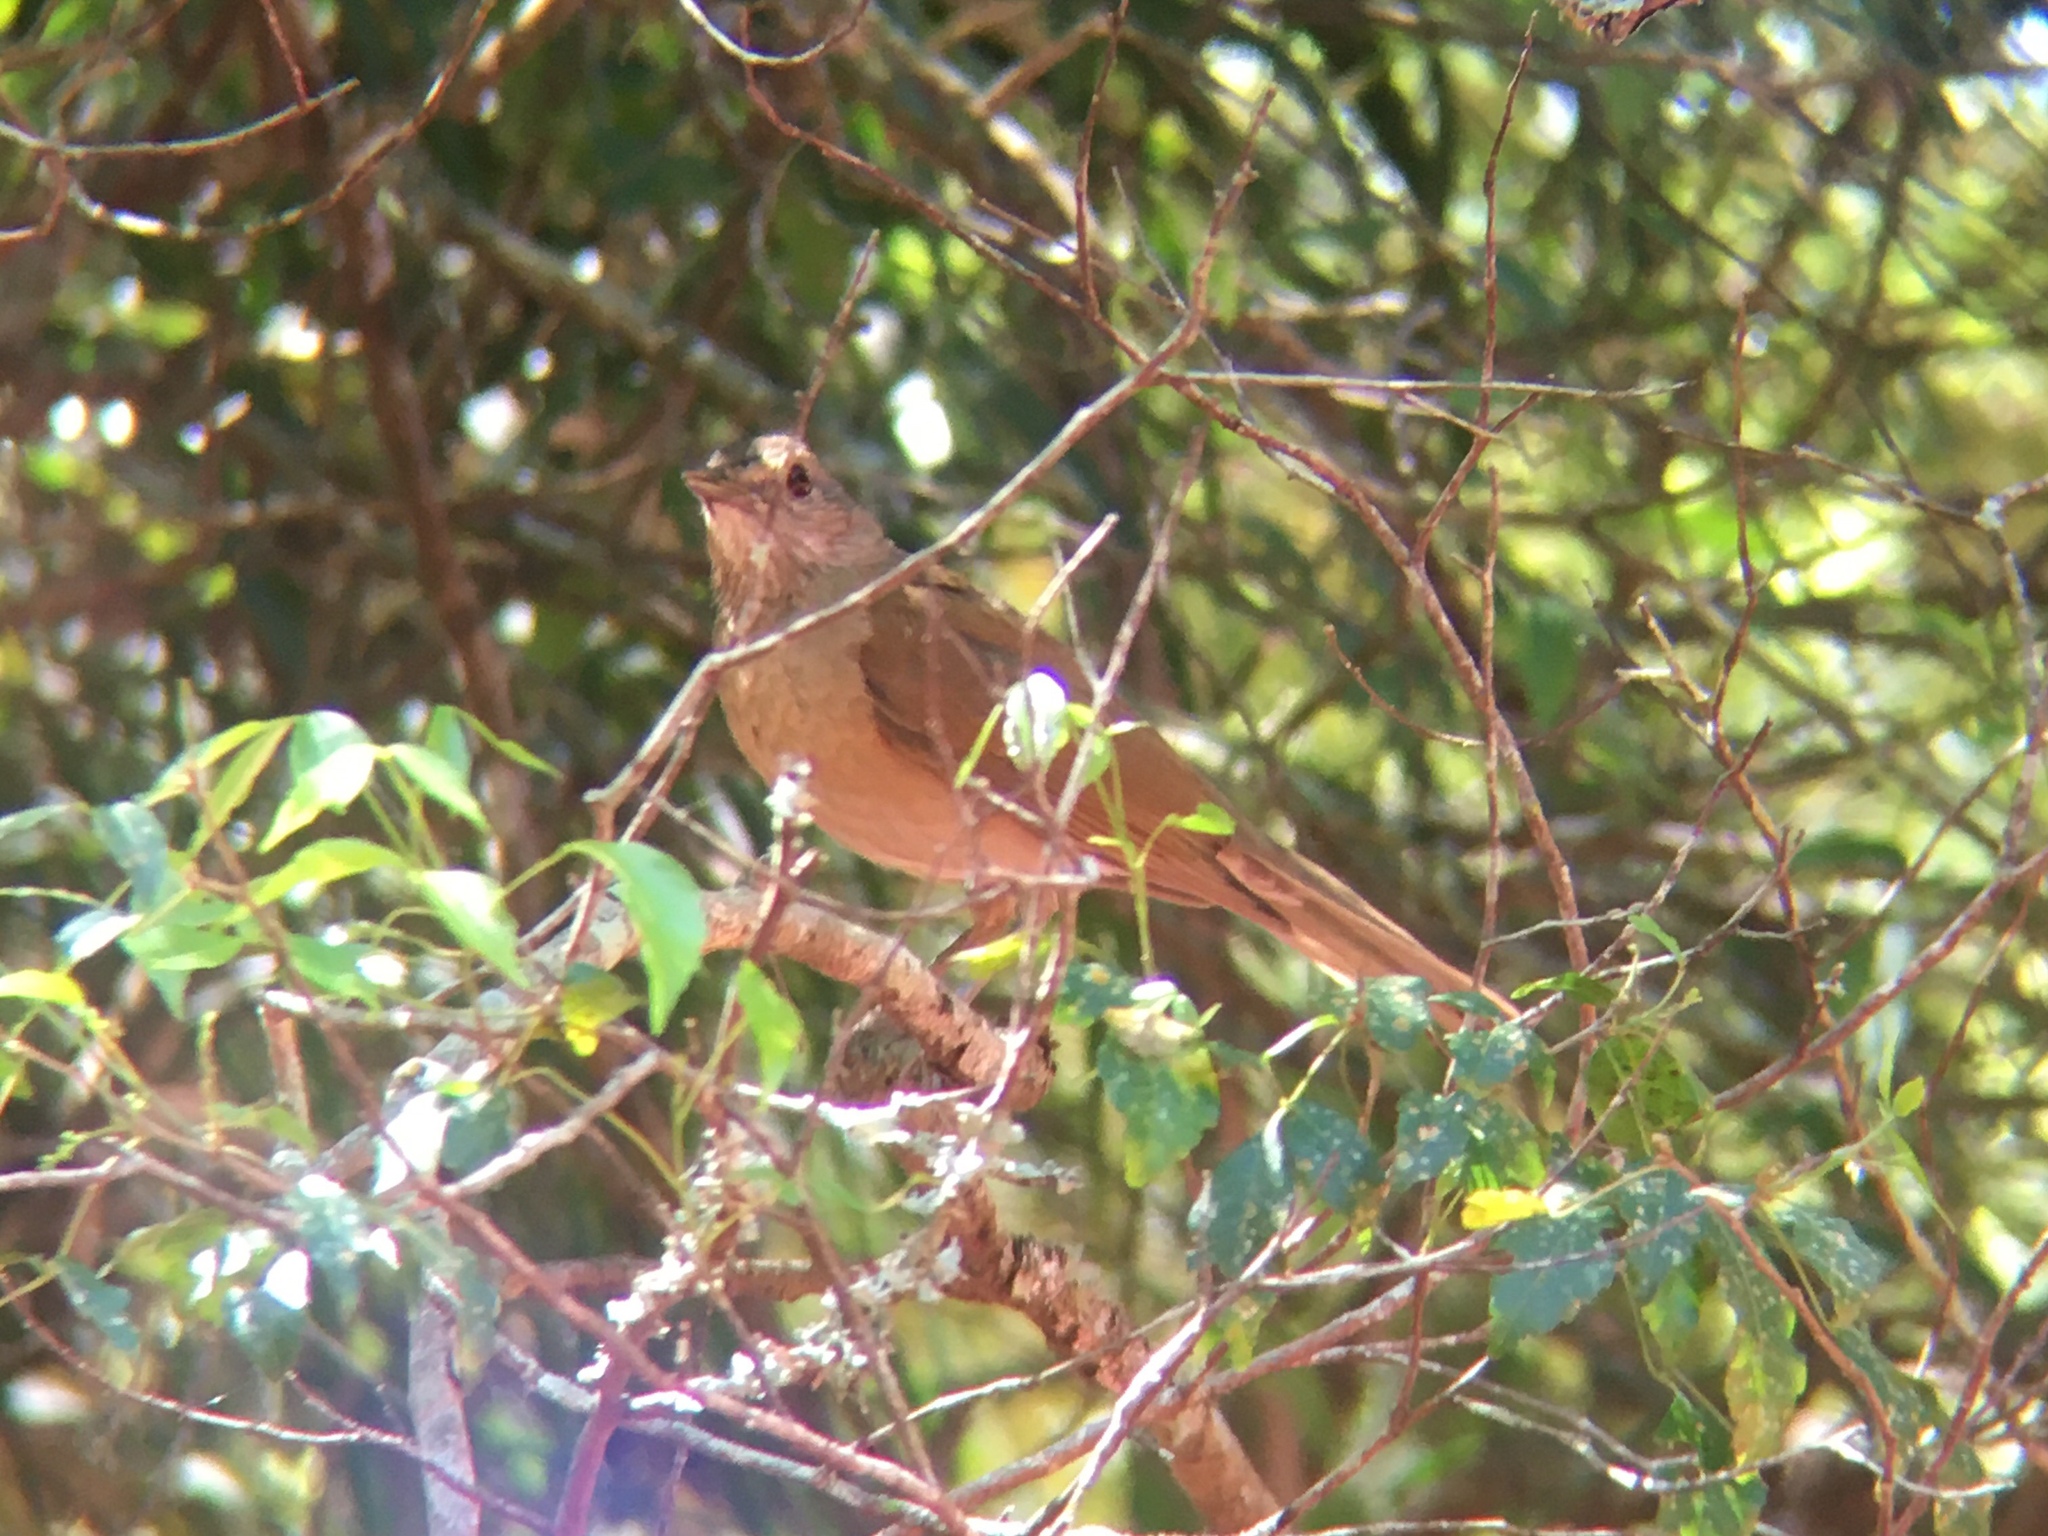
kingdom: Animalia
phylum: Chordata
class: Aves
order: Passeriformes
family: Turdidae
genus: Turdus
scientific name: Turdus leucomelas
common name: Pale-breasted thrush
